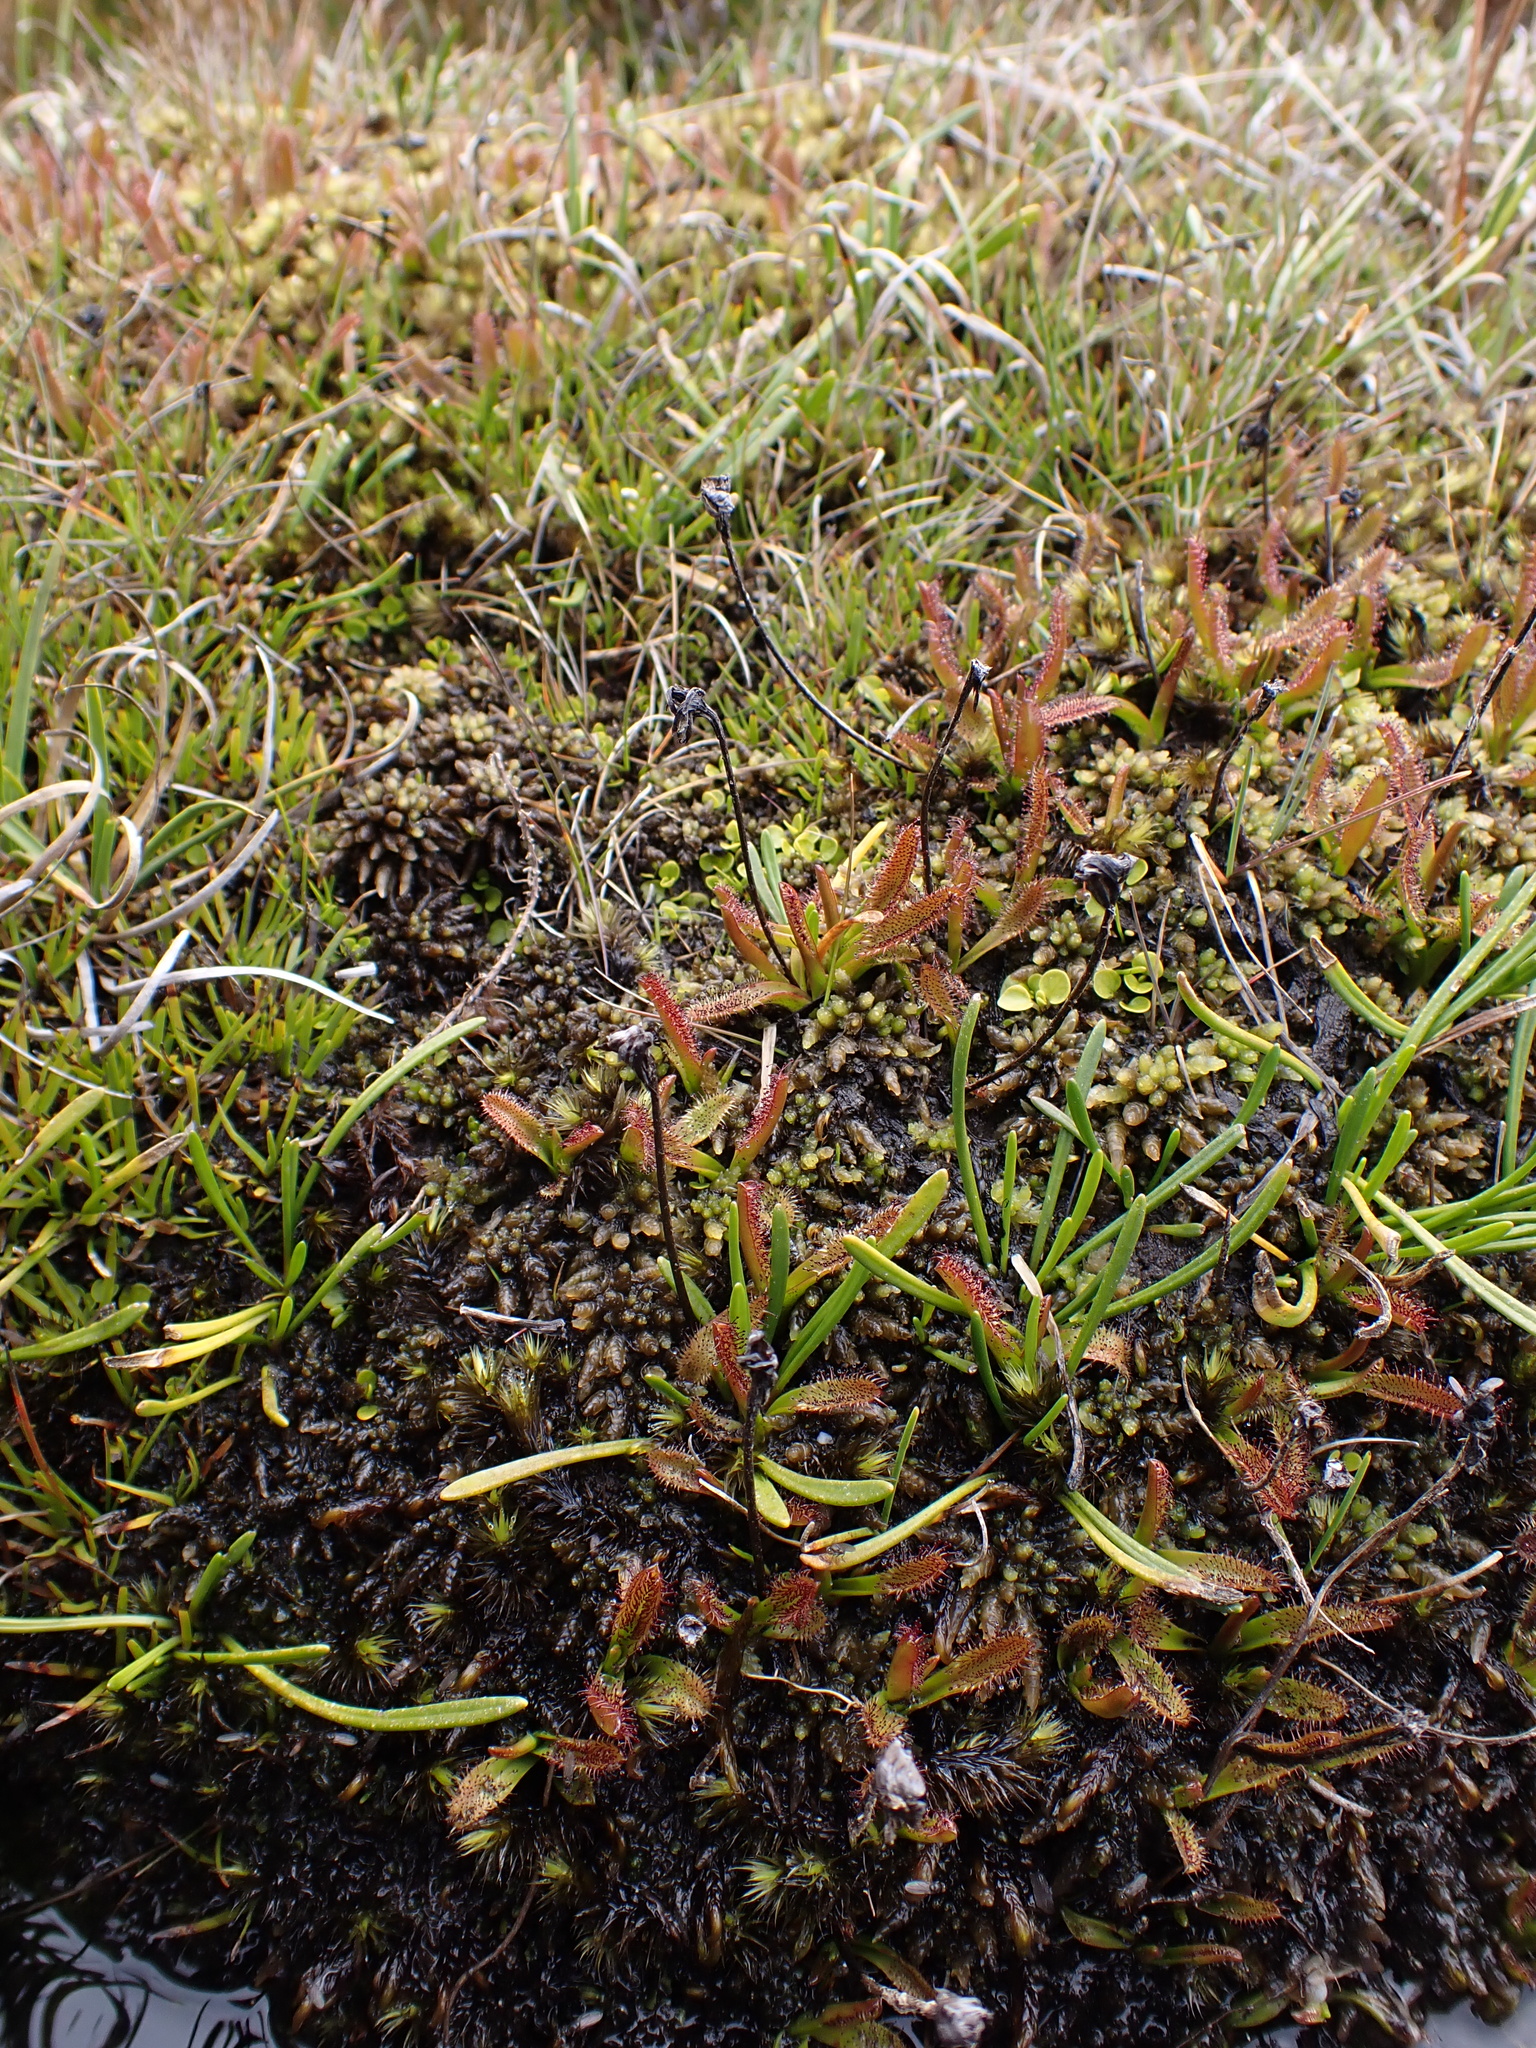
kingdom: Plantae
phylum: Tracheophyta
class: Magnoliopsida
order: Caryophyllales
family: Droseraceae
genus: Drosera
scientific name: Drosera arcturi
